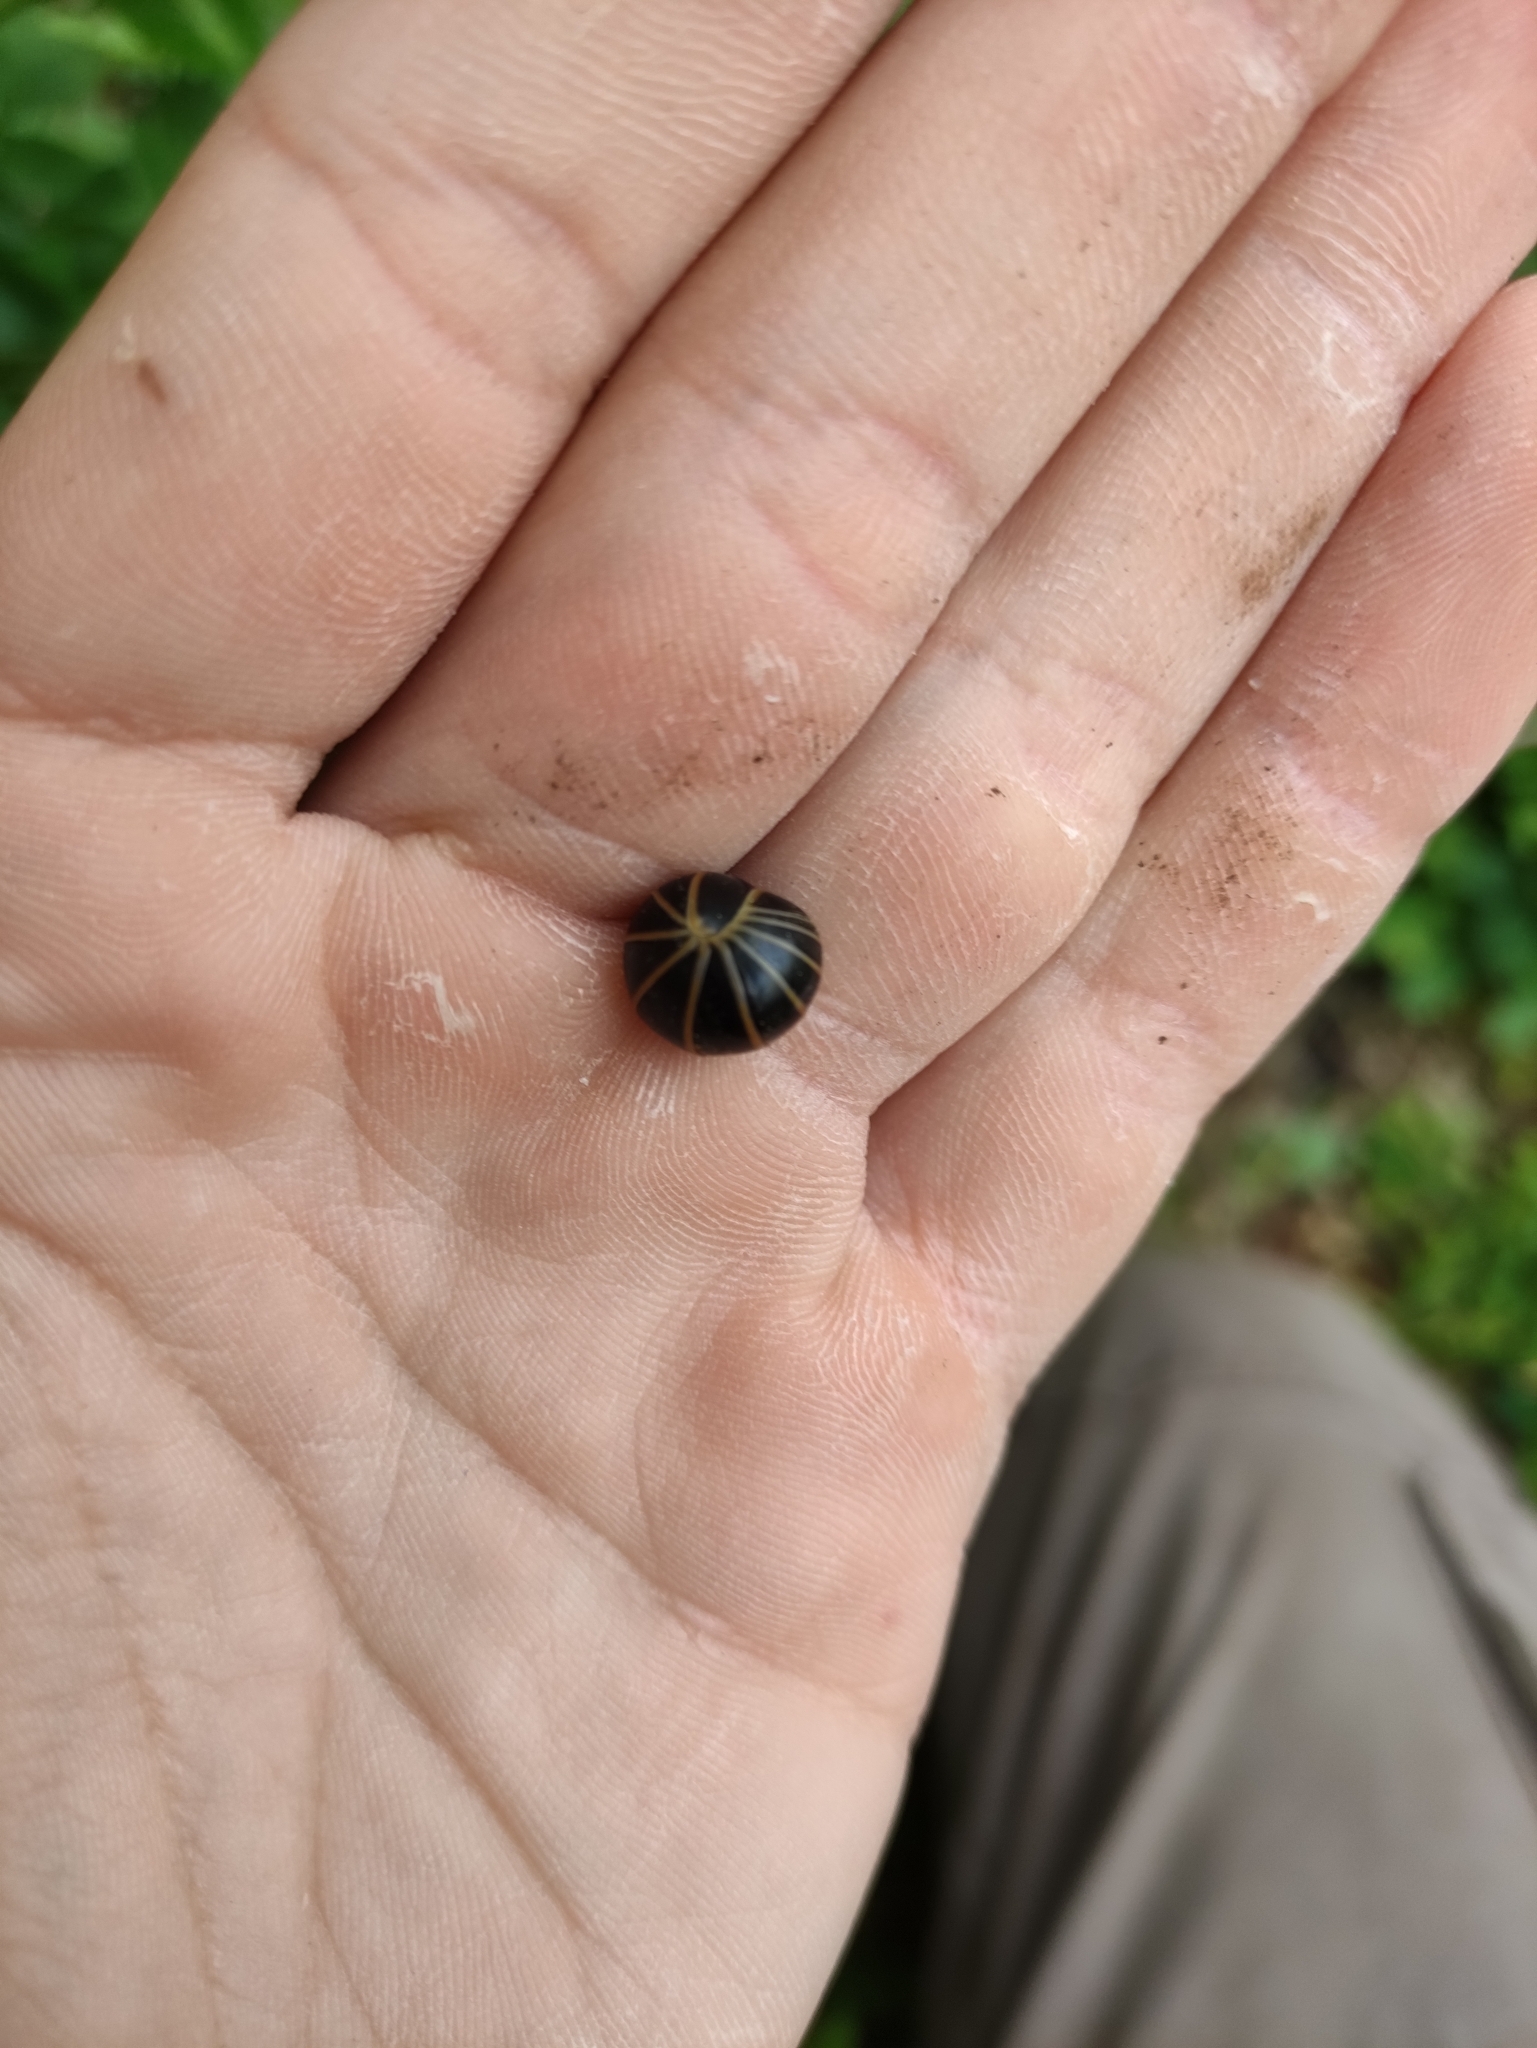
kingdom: Animalia
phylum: Arthropoda
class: Diplopoda
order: Glomerida
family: Glomeridae
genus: Glomeris
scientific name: Glomeris marginata
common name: Bordered pill millipede
